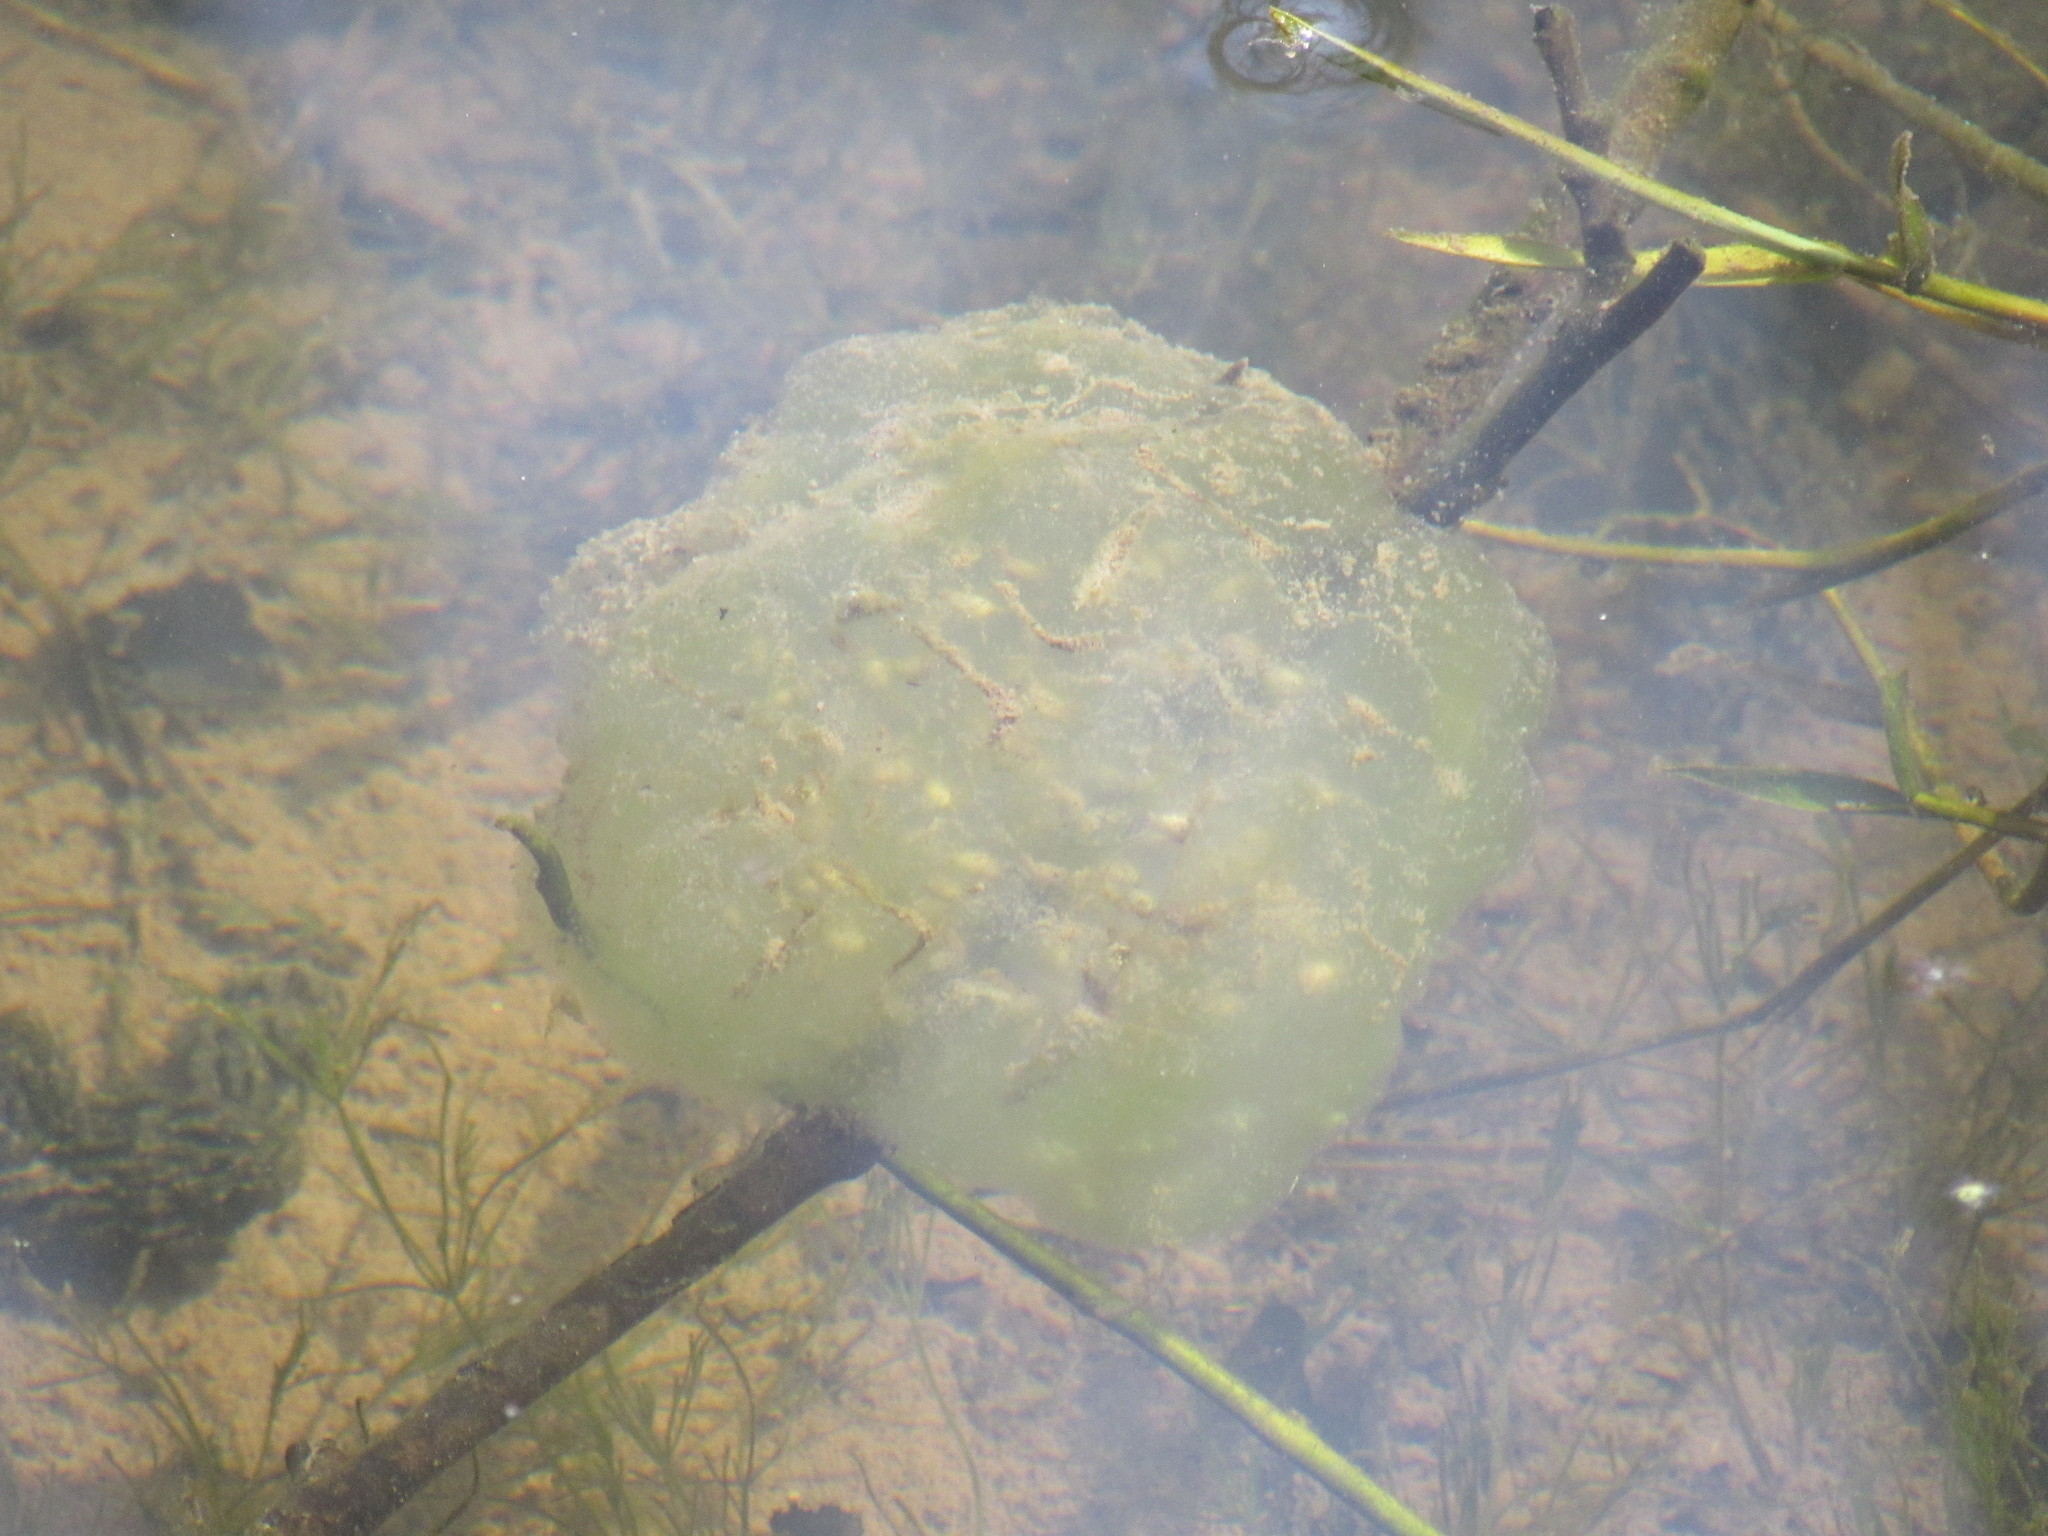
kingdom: Animalia
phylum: Chordata
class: Amphibia
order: Caudata
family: Ambystomatidae
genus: Ambystoma
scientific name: Ambystoma gracile
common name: Northwestern salamander
